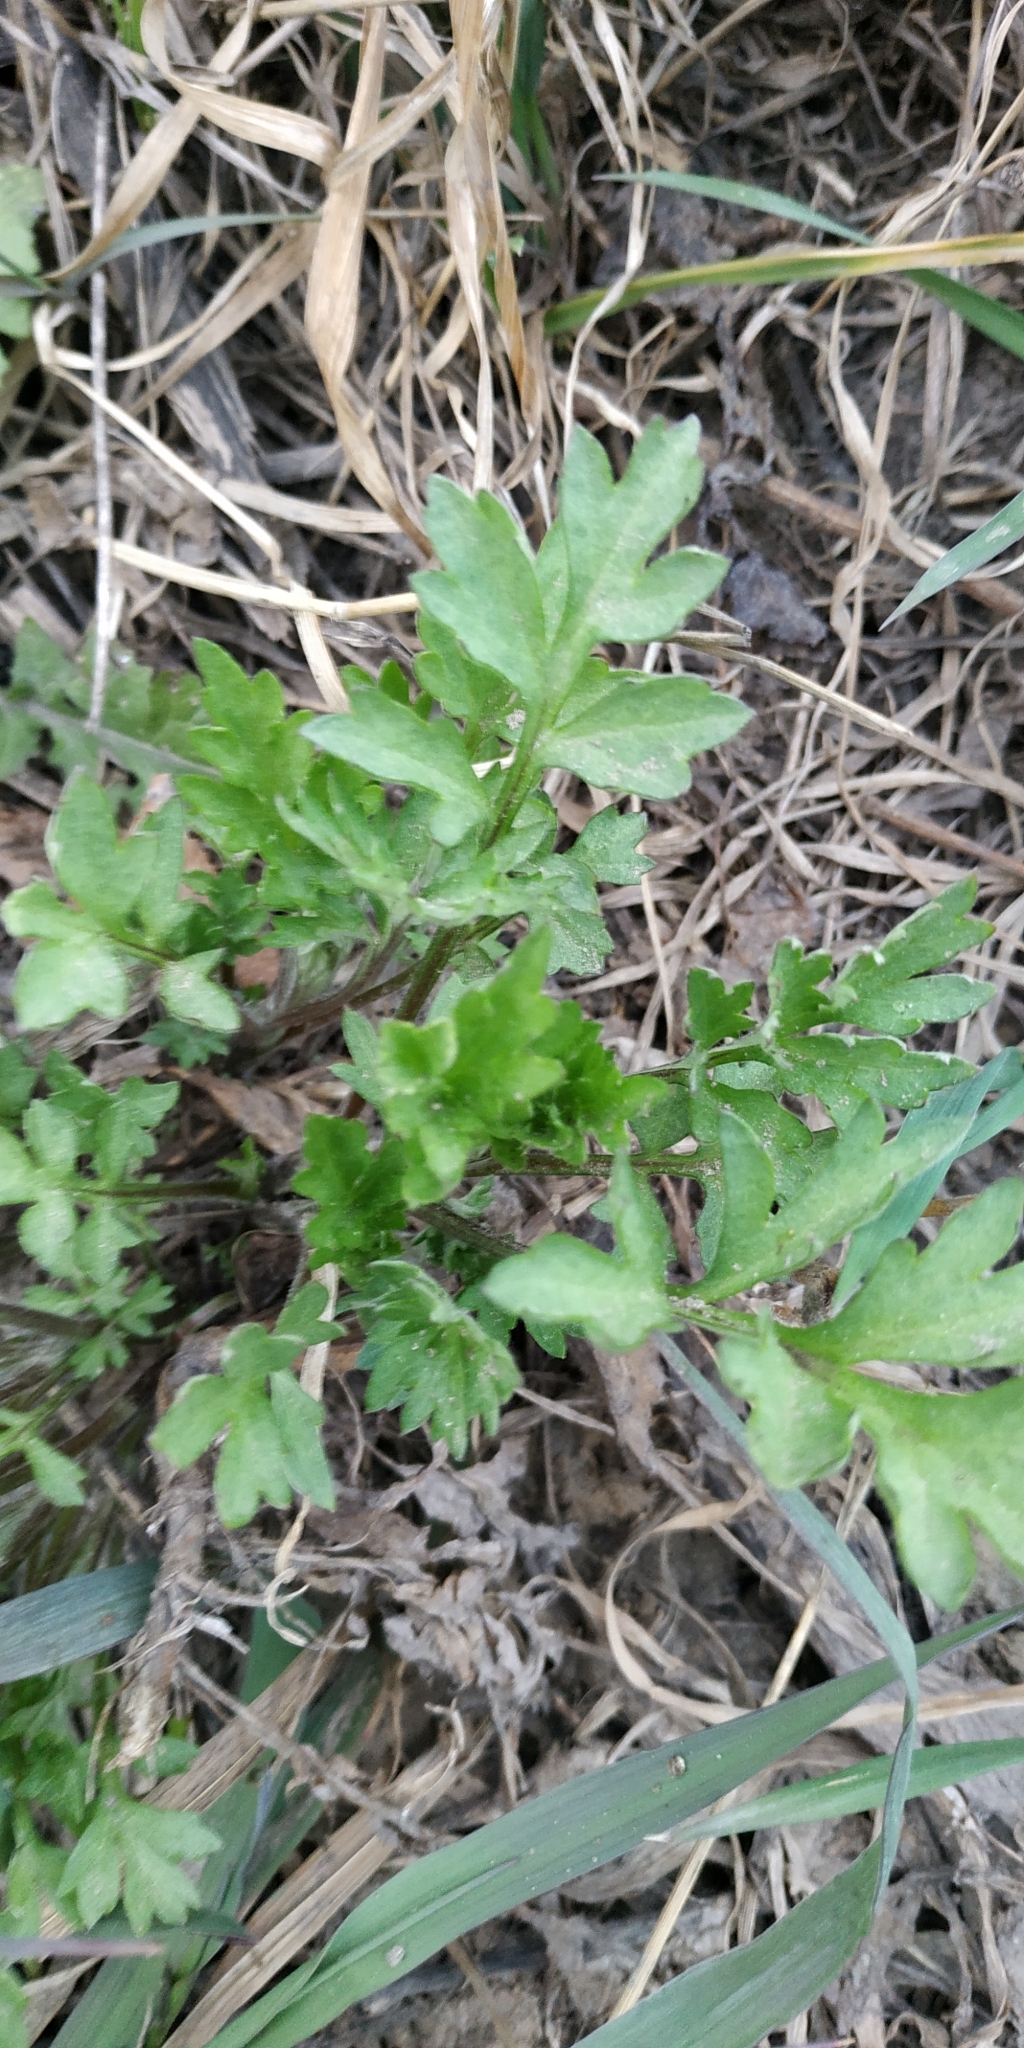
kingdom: Plantae
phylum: Tracheophyta
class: Magnoliopsida
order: Asterales
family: Asteraceae
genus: Artemisia
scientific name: Artemisia vulgaris
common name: Mugwort
